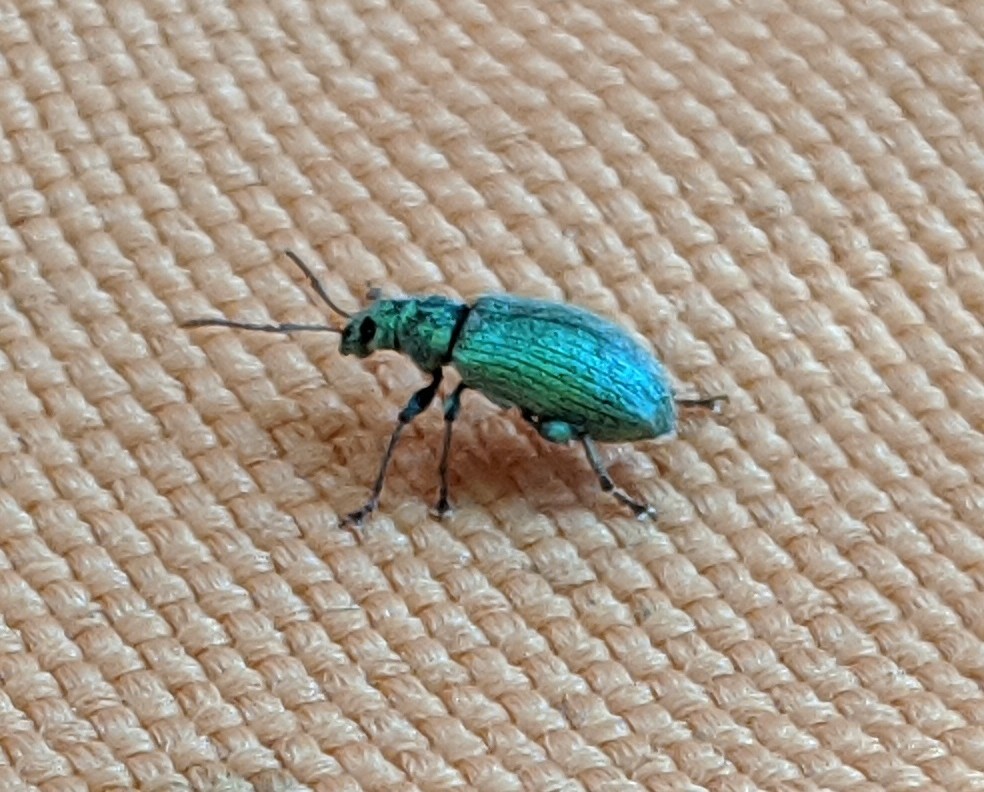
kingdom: Animalia
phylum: Arthropoda
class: Insecta
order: Coleoptera
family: Curculionidae
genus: Phyllobius
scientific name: Phyllobius argentatus
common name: Silver-green leaf weevil
